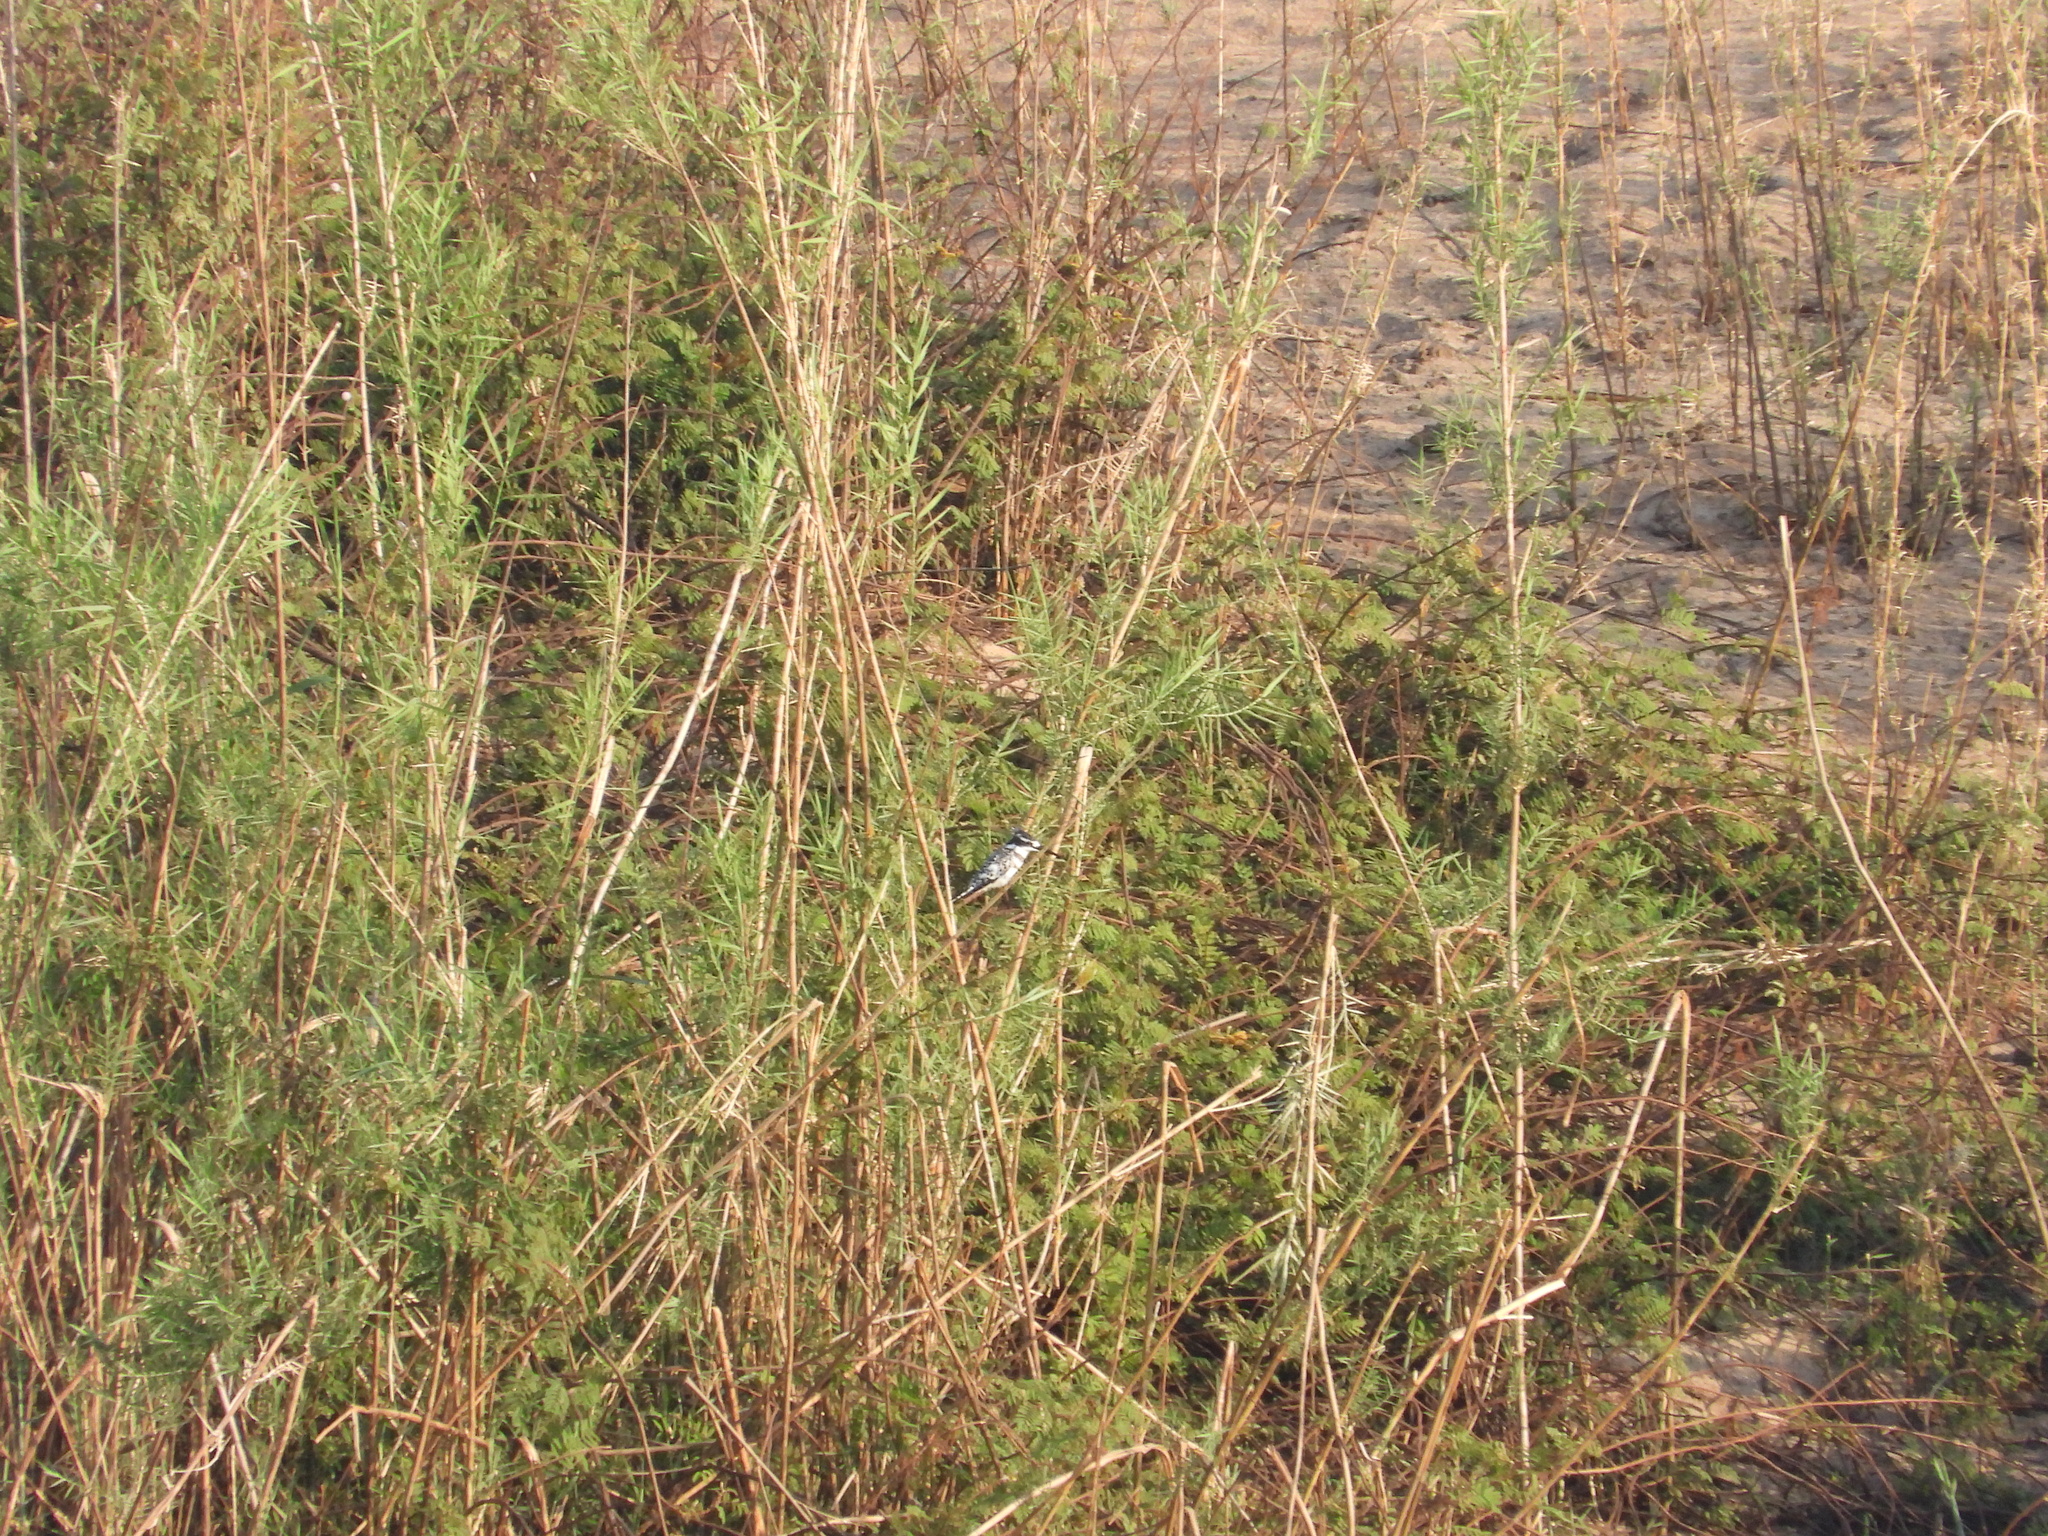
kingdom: Animalia
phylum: Chordata
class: Aves
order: Coraciiformes
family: Alcedinidae
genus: Ceryle
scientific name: Ceryle rudis
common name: Pied kingfisher
